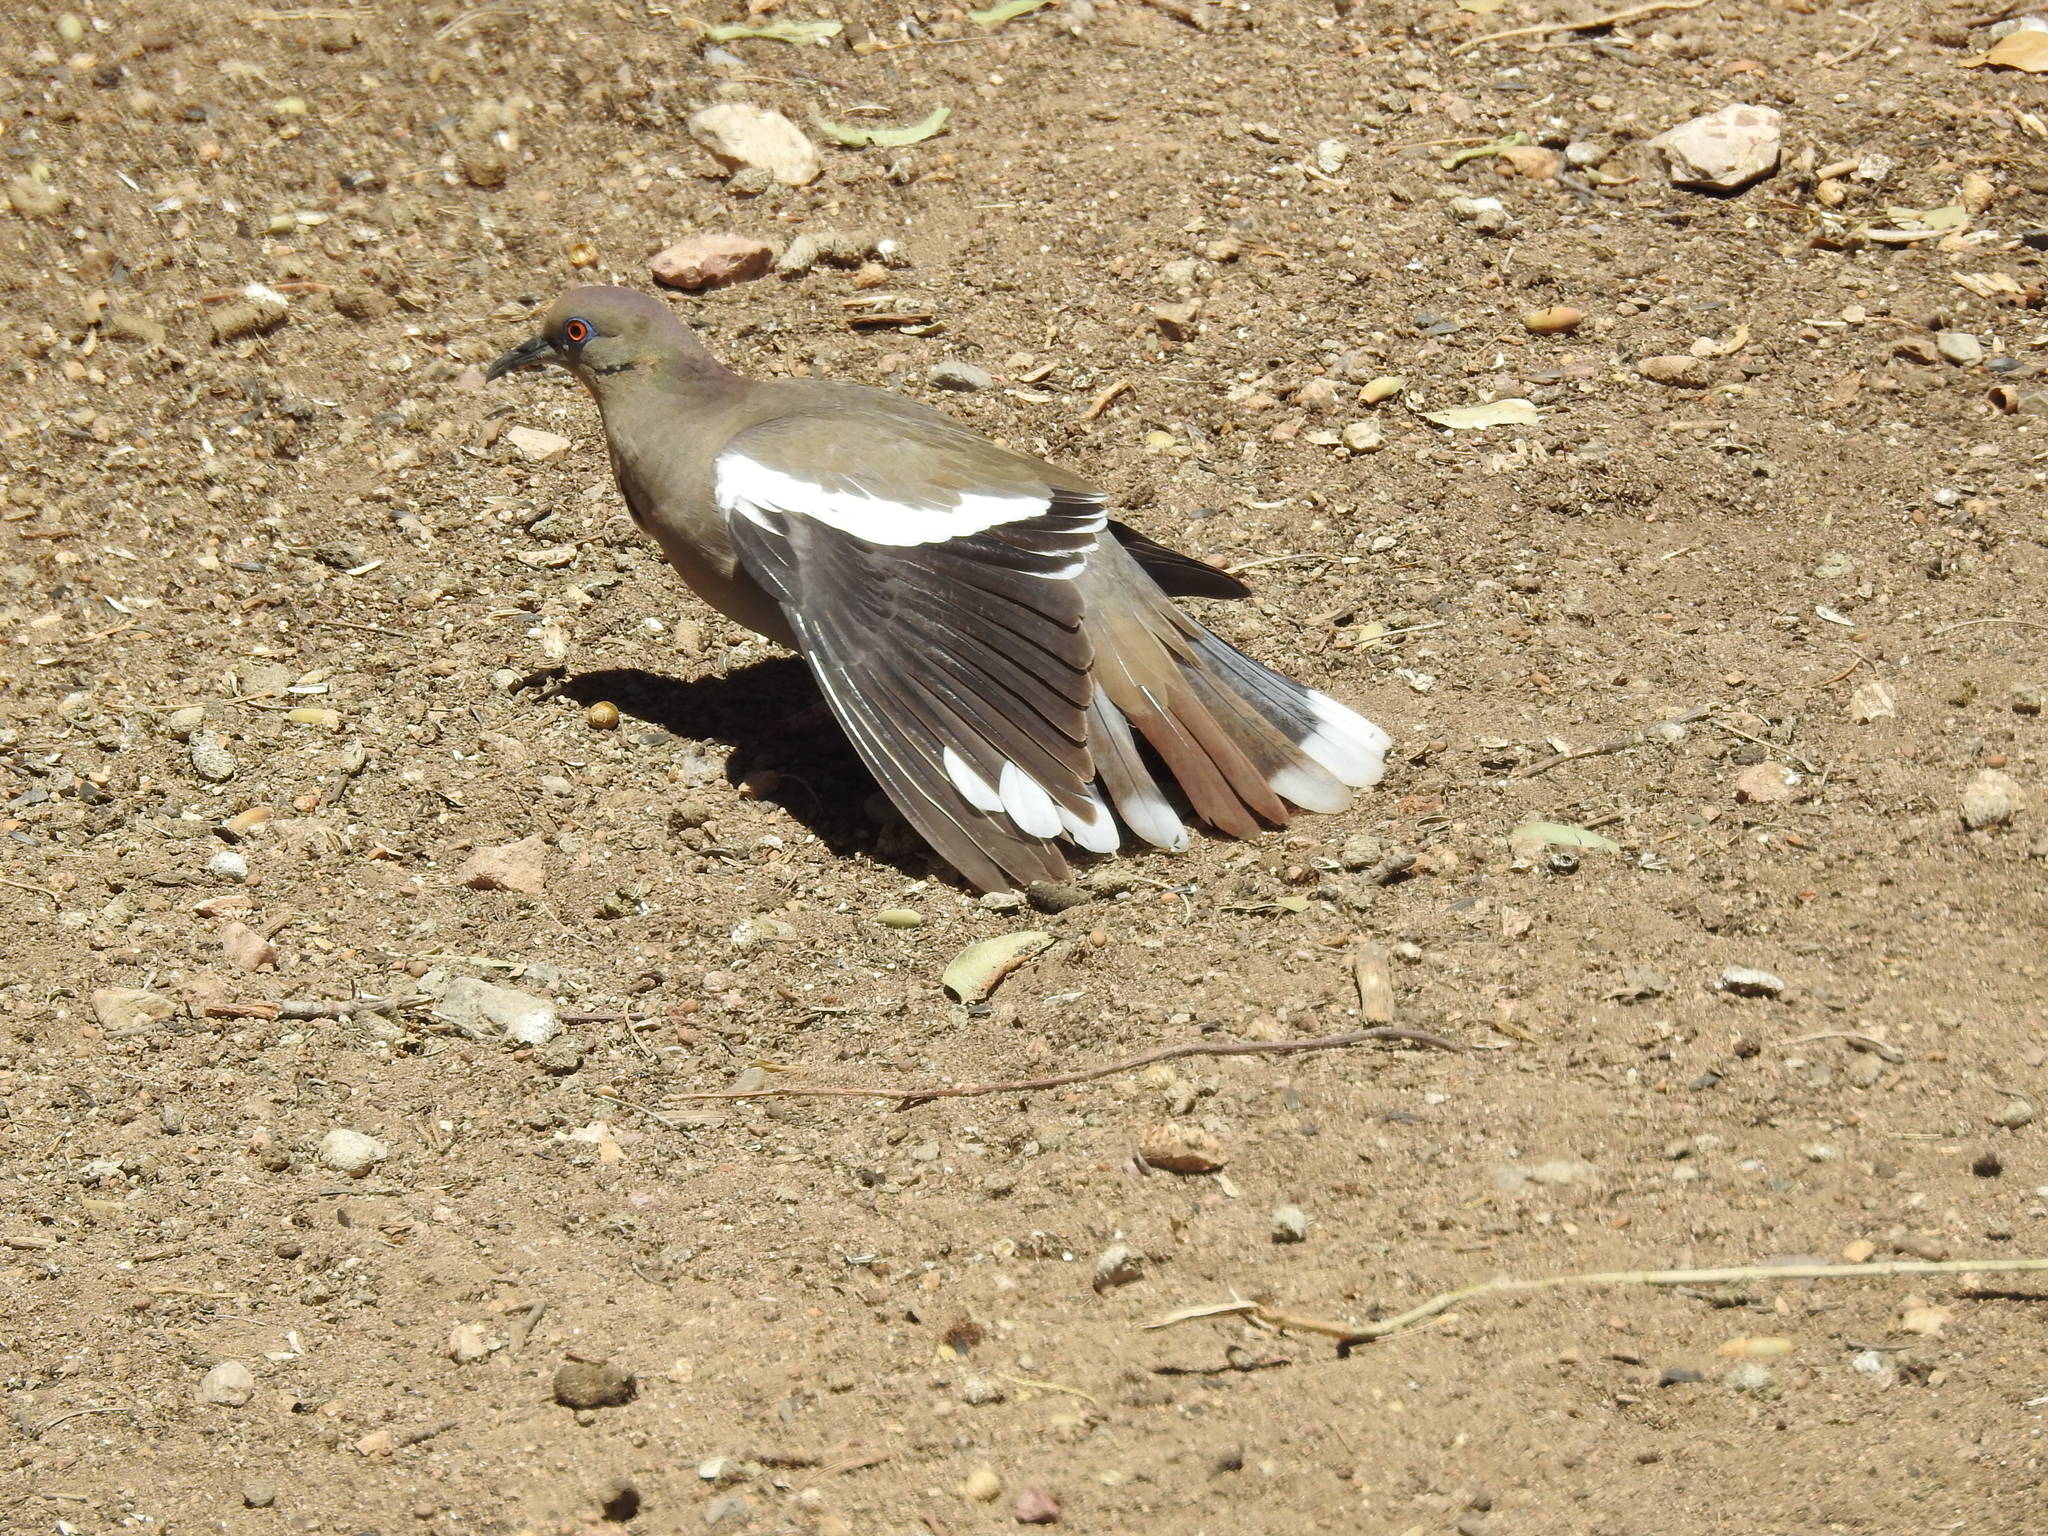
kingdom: Animalia
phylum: Chordata
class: Aves
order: Columbiformes
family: Columbidae
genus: Zenaida
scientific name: Zenaida asiatica
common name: White-winged dove
